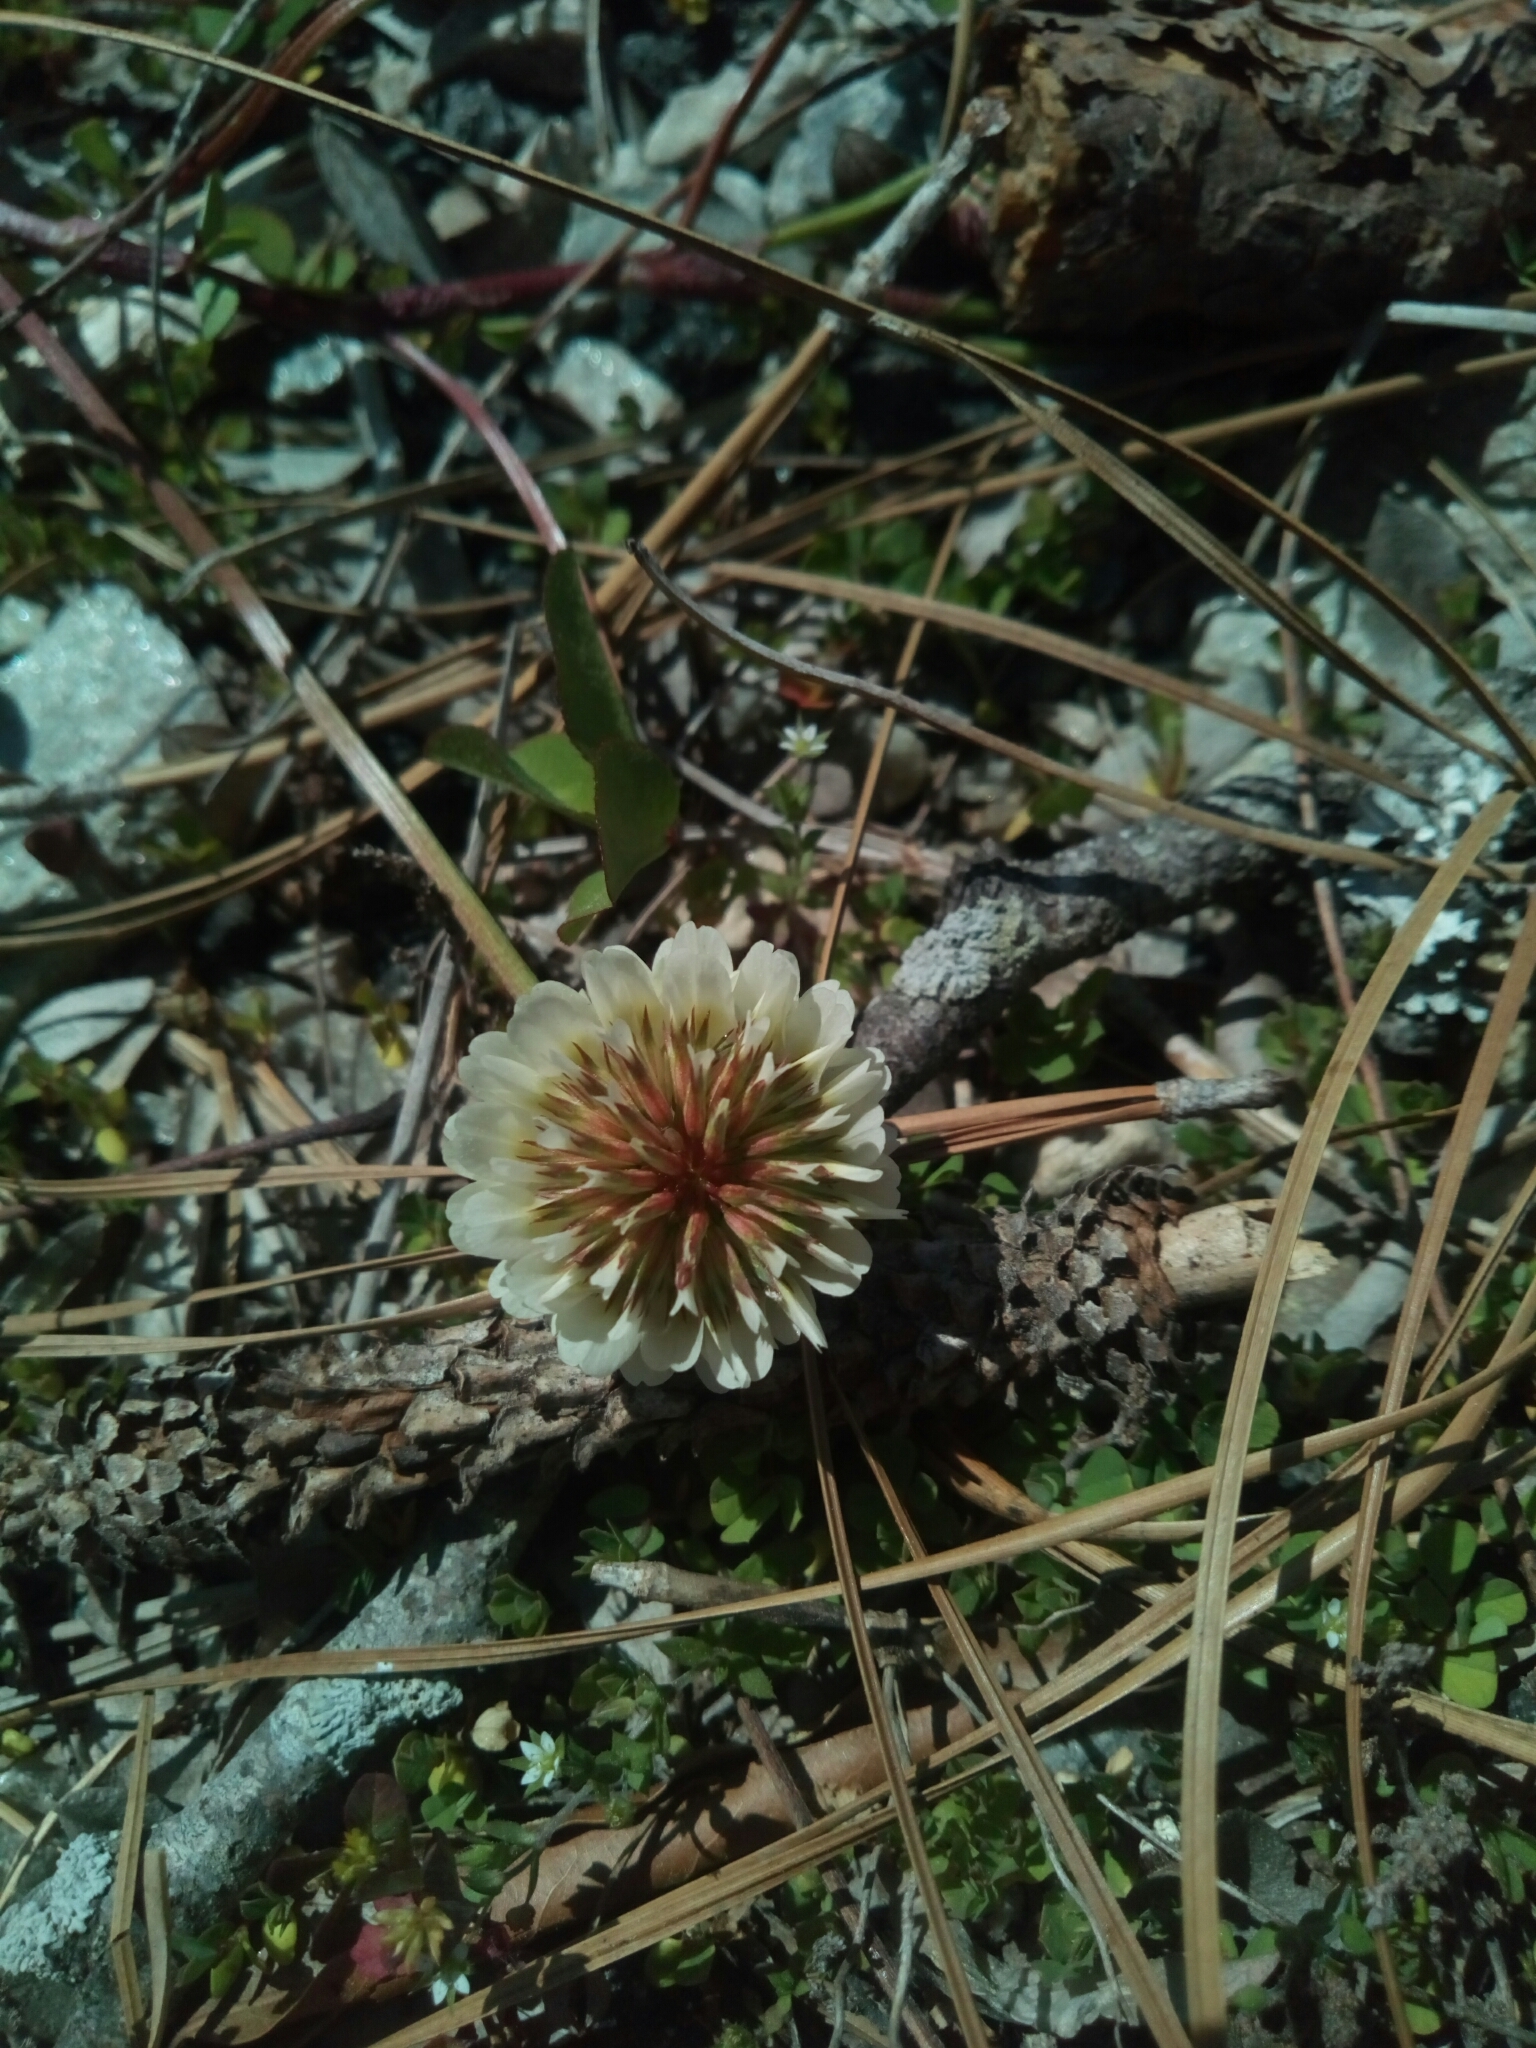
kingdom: Plantae
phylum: Tracheophyta
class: Magnoliopsida
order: Fabales
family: Fabaceae
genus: Trifolium
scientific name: Trifolium repens
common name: White clover
